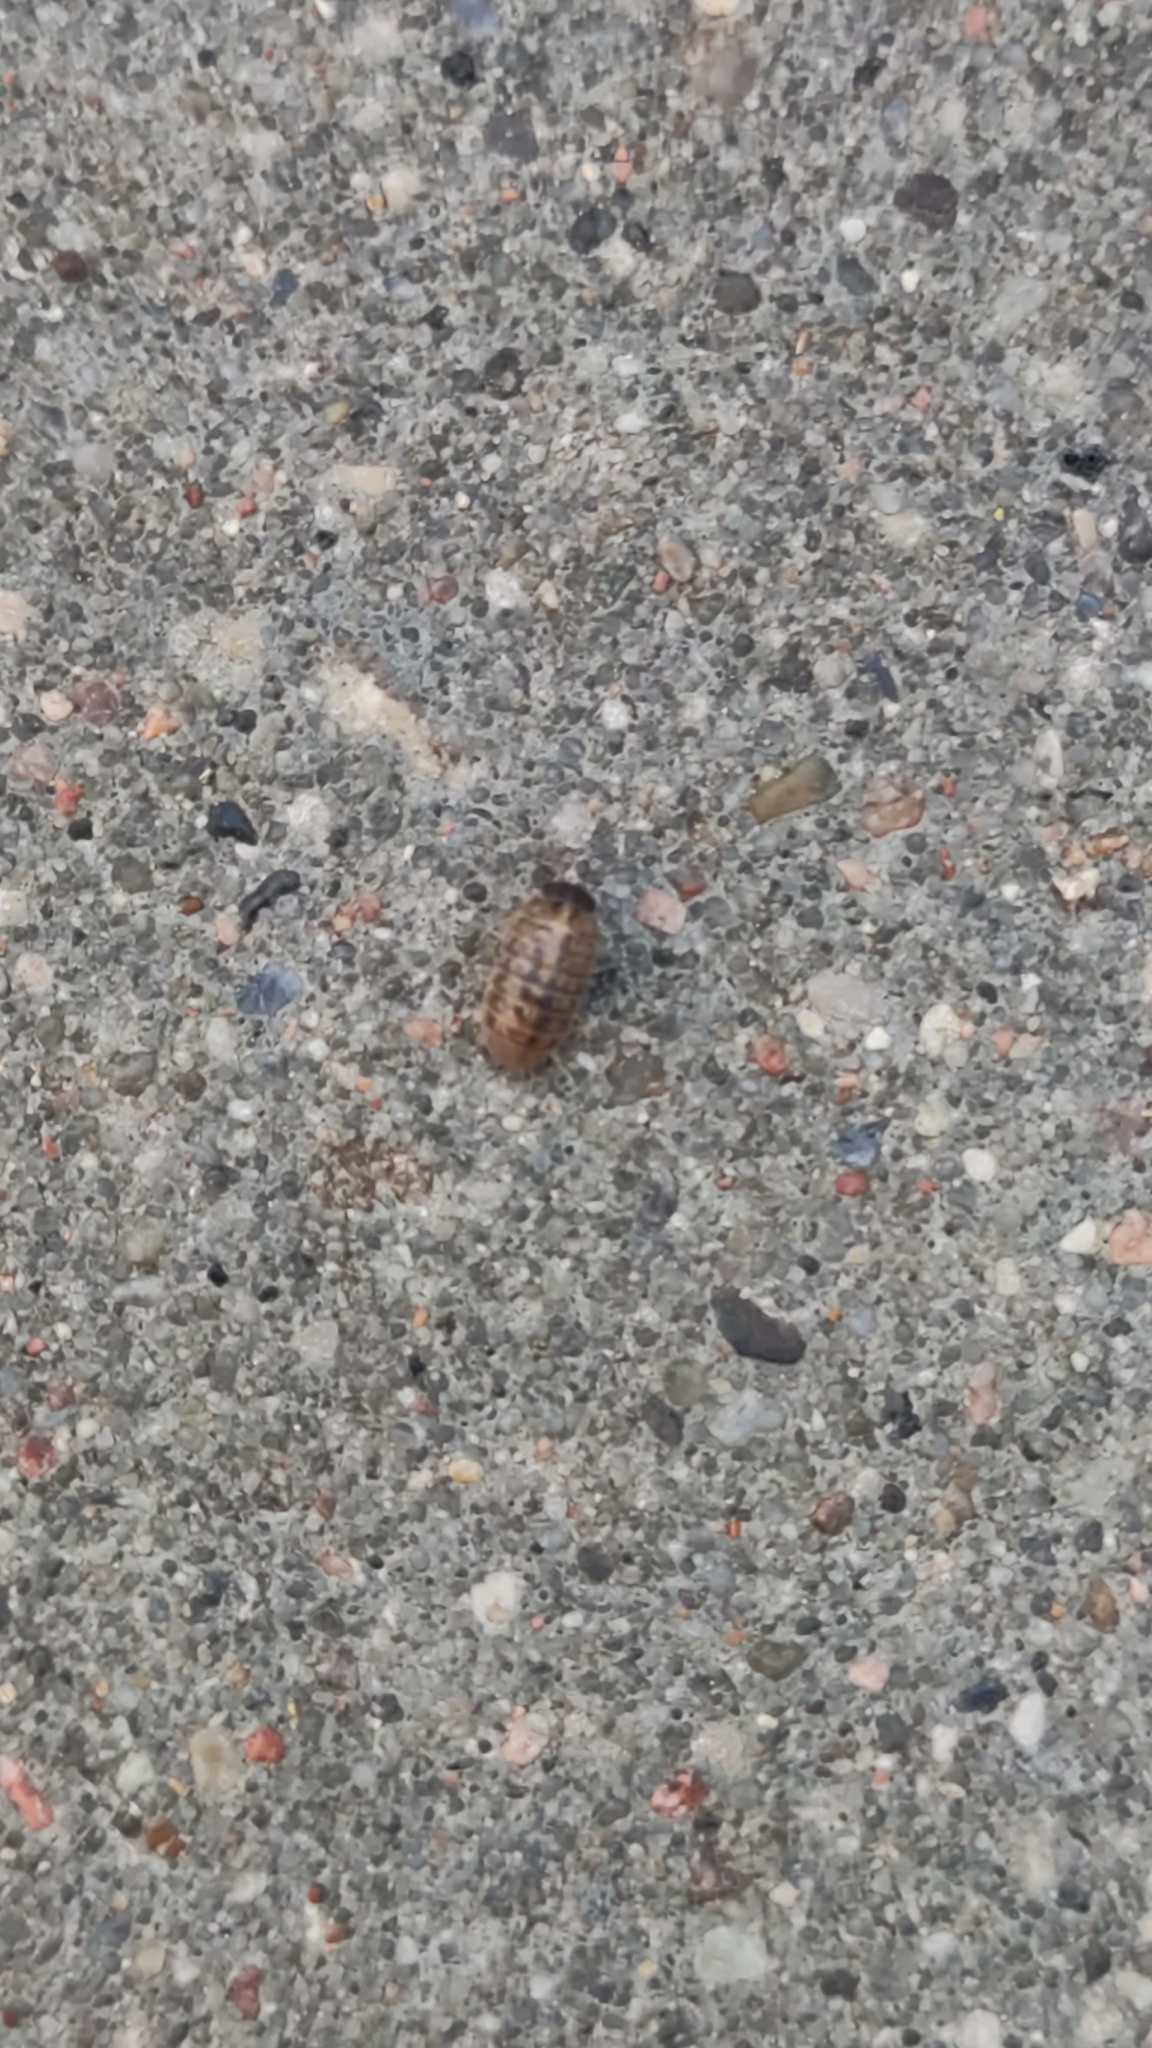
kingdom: Animalia
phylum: Arthropoda
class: Malacostraca
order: Isopoda
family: Armadillidiidae
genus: Armadillidium
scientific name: Armadillidium vulgare
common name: Common pill woodlouse
